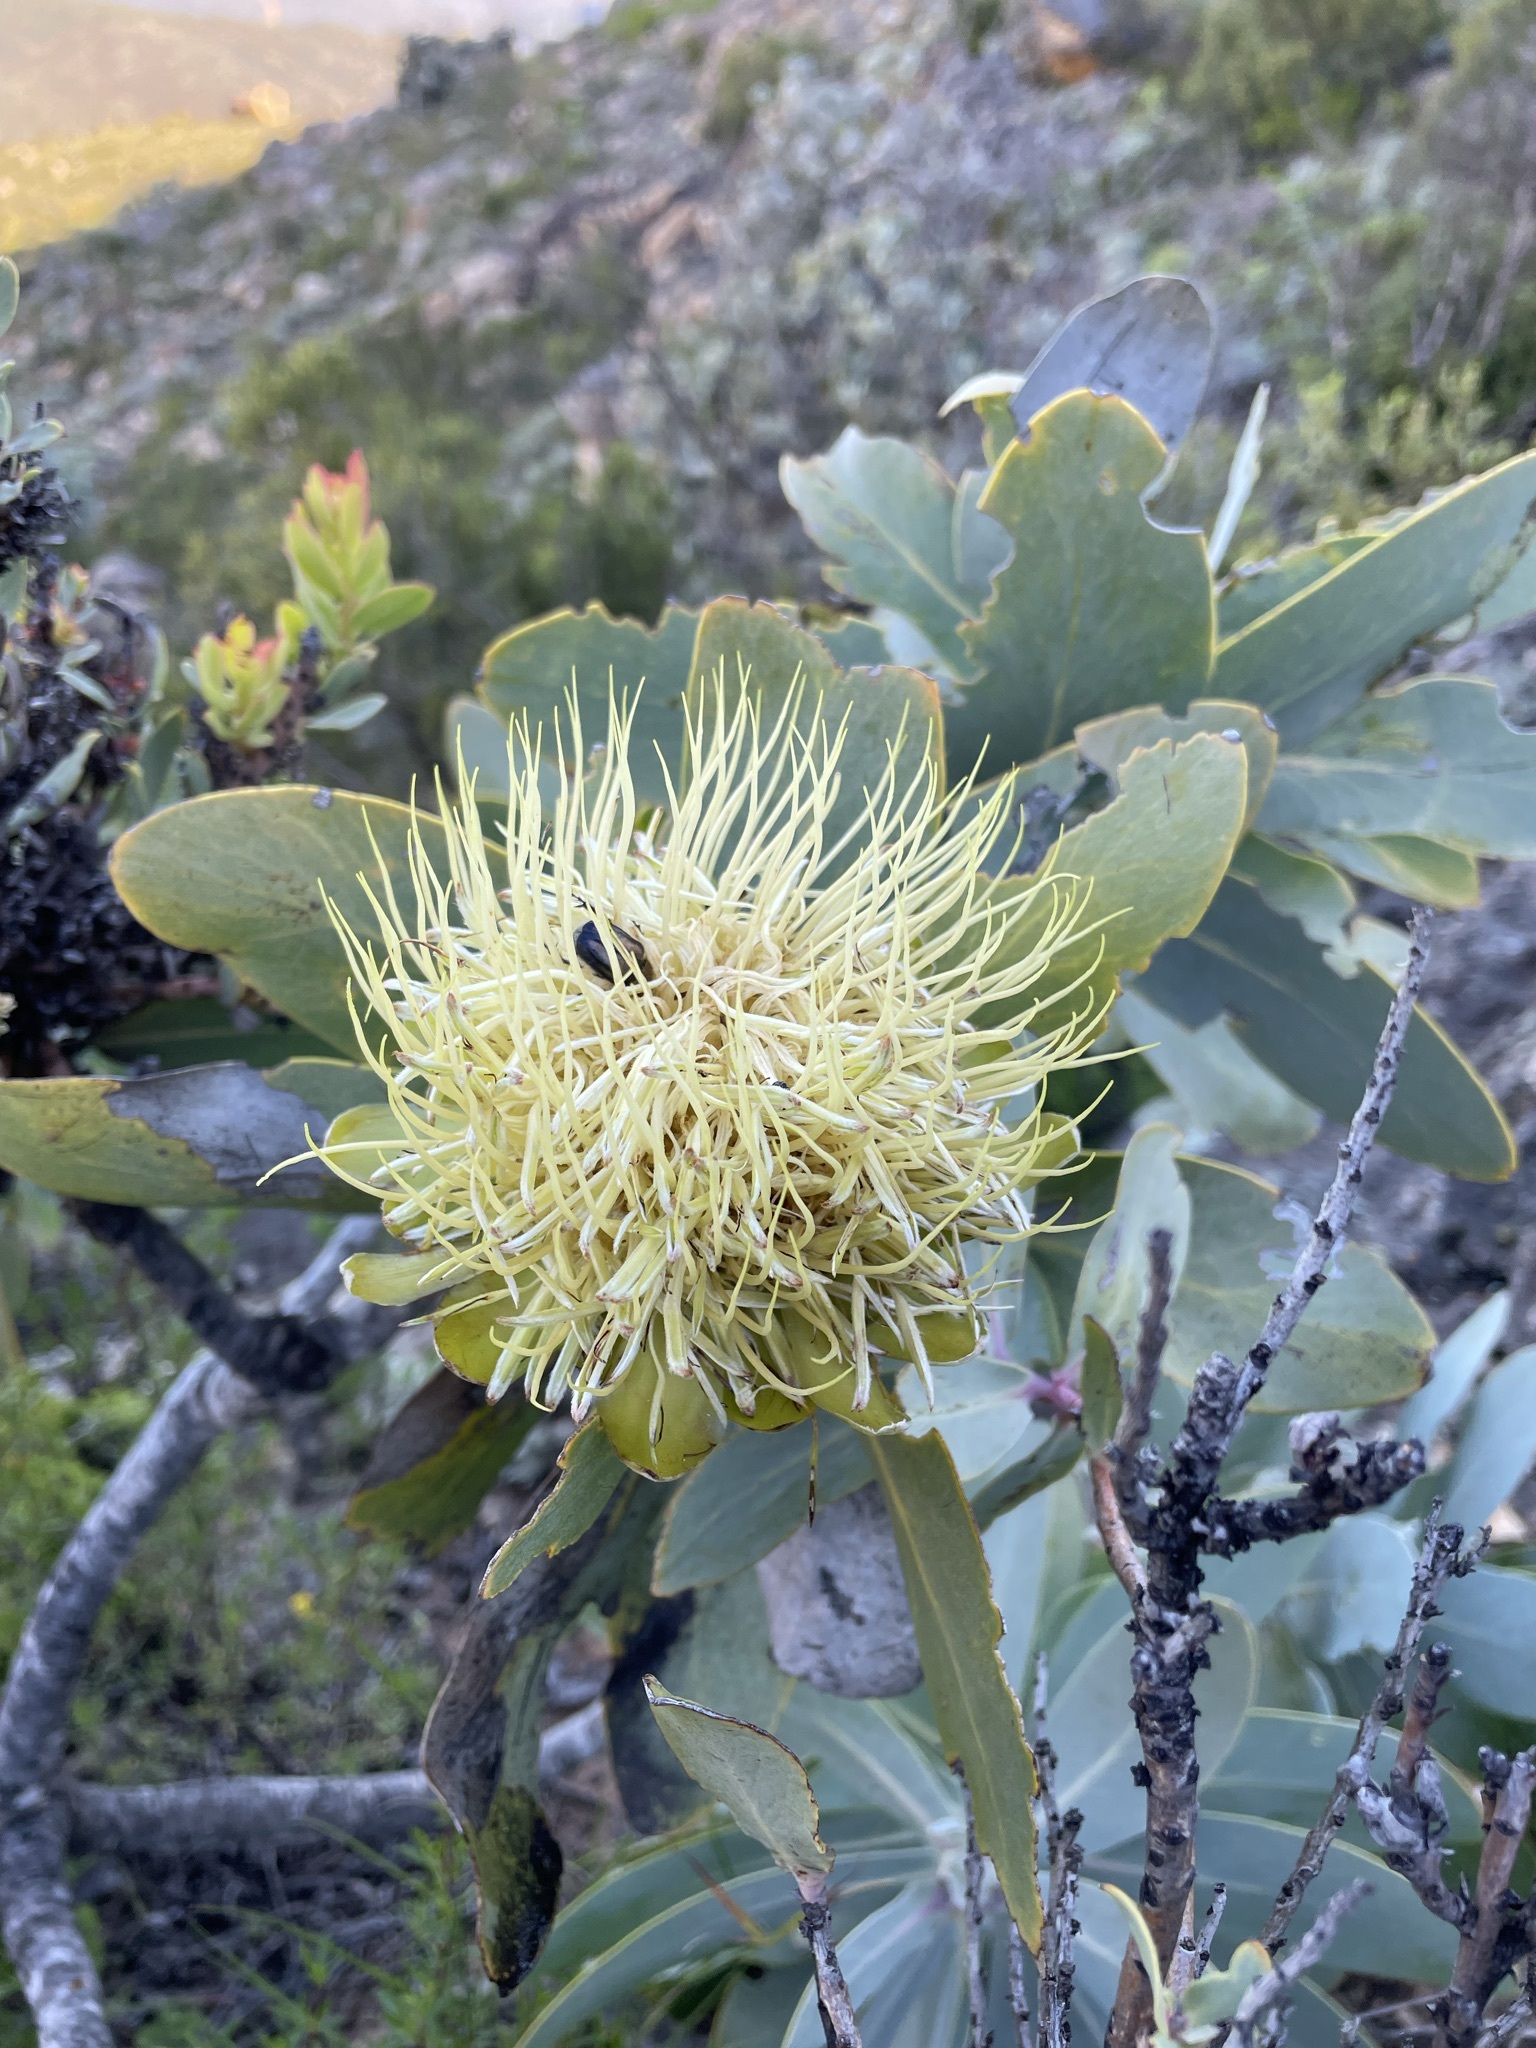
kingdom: Plantae
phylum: Tracheophyta
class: Magnoliopsida
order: Proteales
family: Proteaceae
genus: Protea
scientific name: Protea nitida
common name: Tree protea
